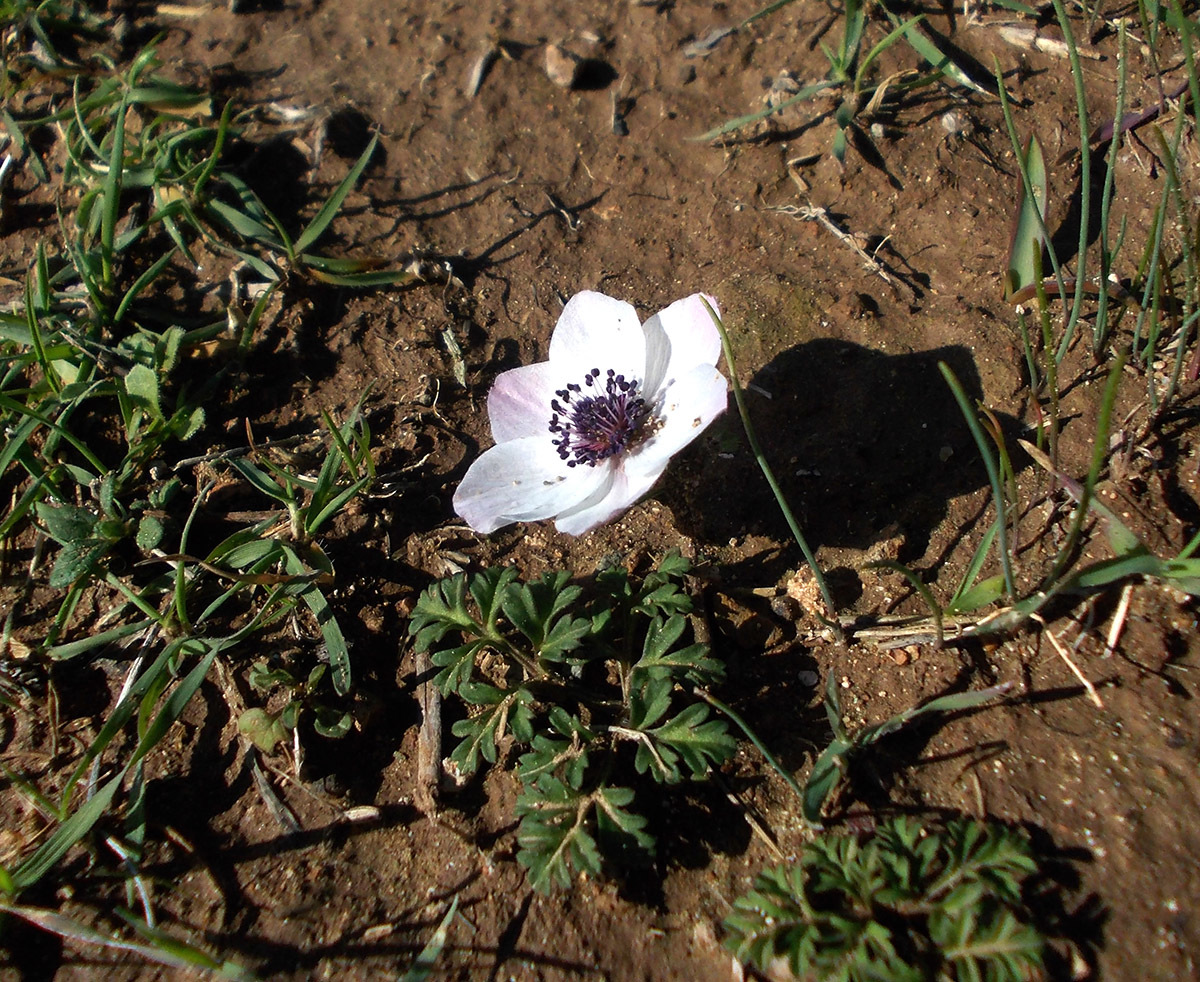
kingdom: Plantae
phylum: Tracheophyta
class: Magnoliopsida
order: Ranunculales
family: Ranunculaceae
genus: Anemone
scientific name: Anemone coronaria
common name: Poppy anemone
